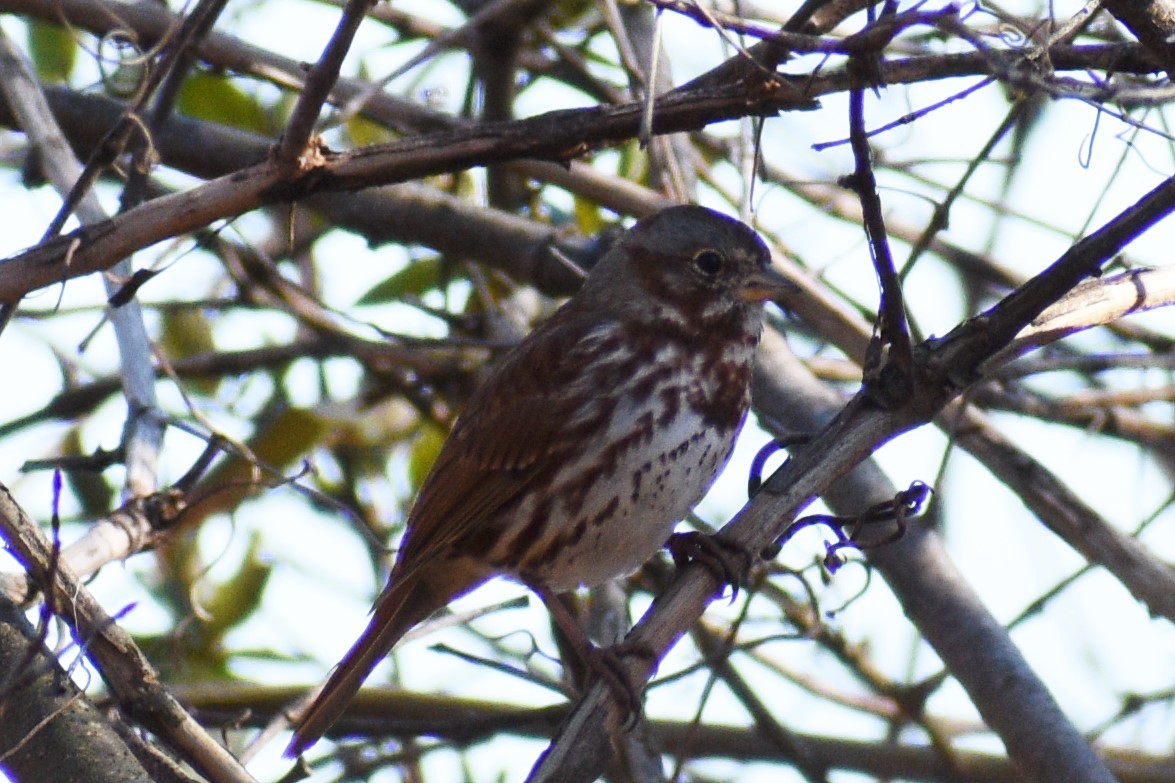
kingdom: Animalia
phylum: Chordata
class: Aves
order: Passeriformes
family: Passerellidae
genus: Passerella
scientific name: Passerella iliaca
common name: Fox sparrow
